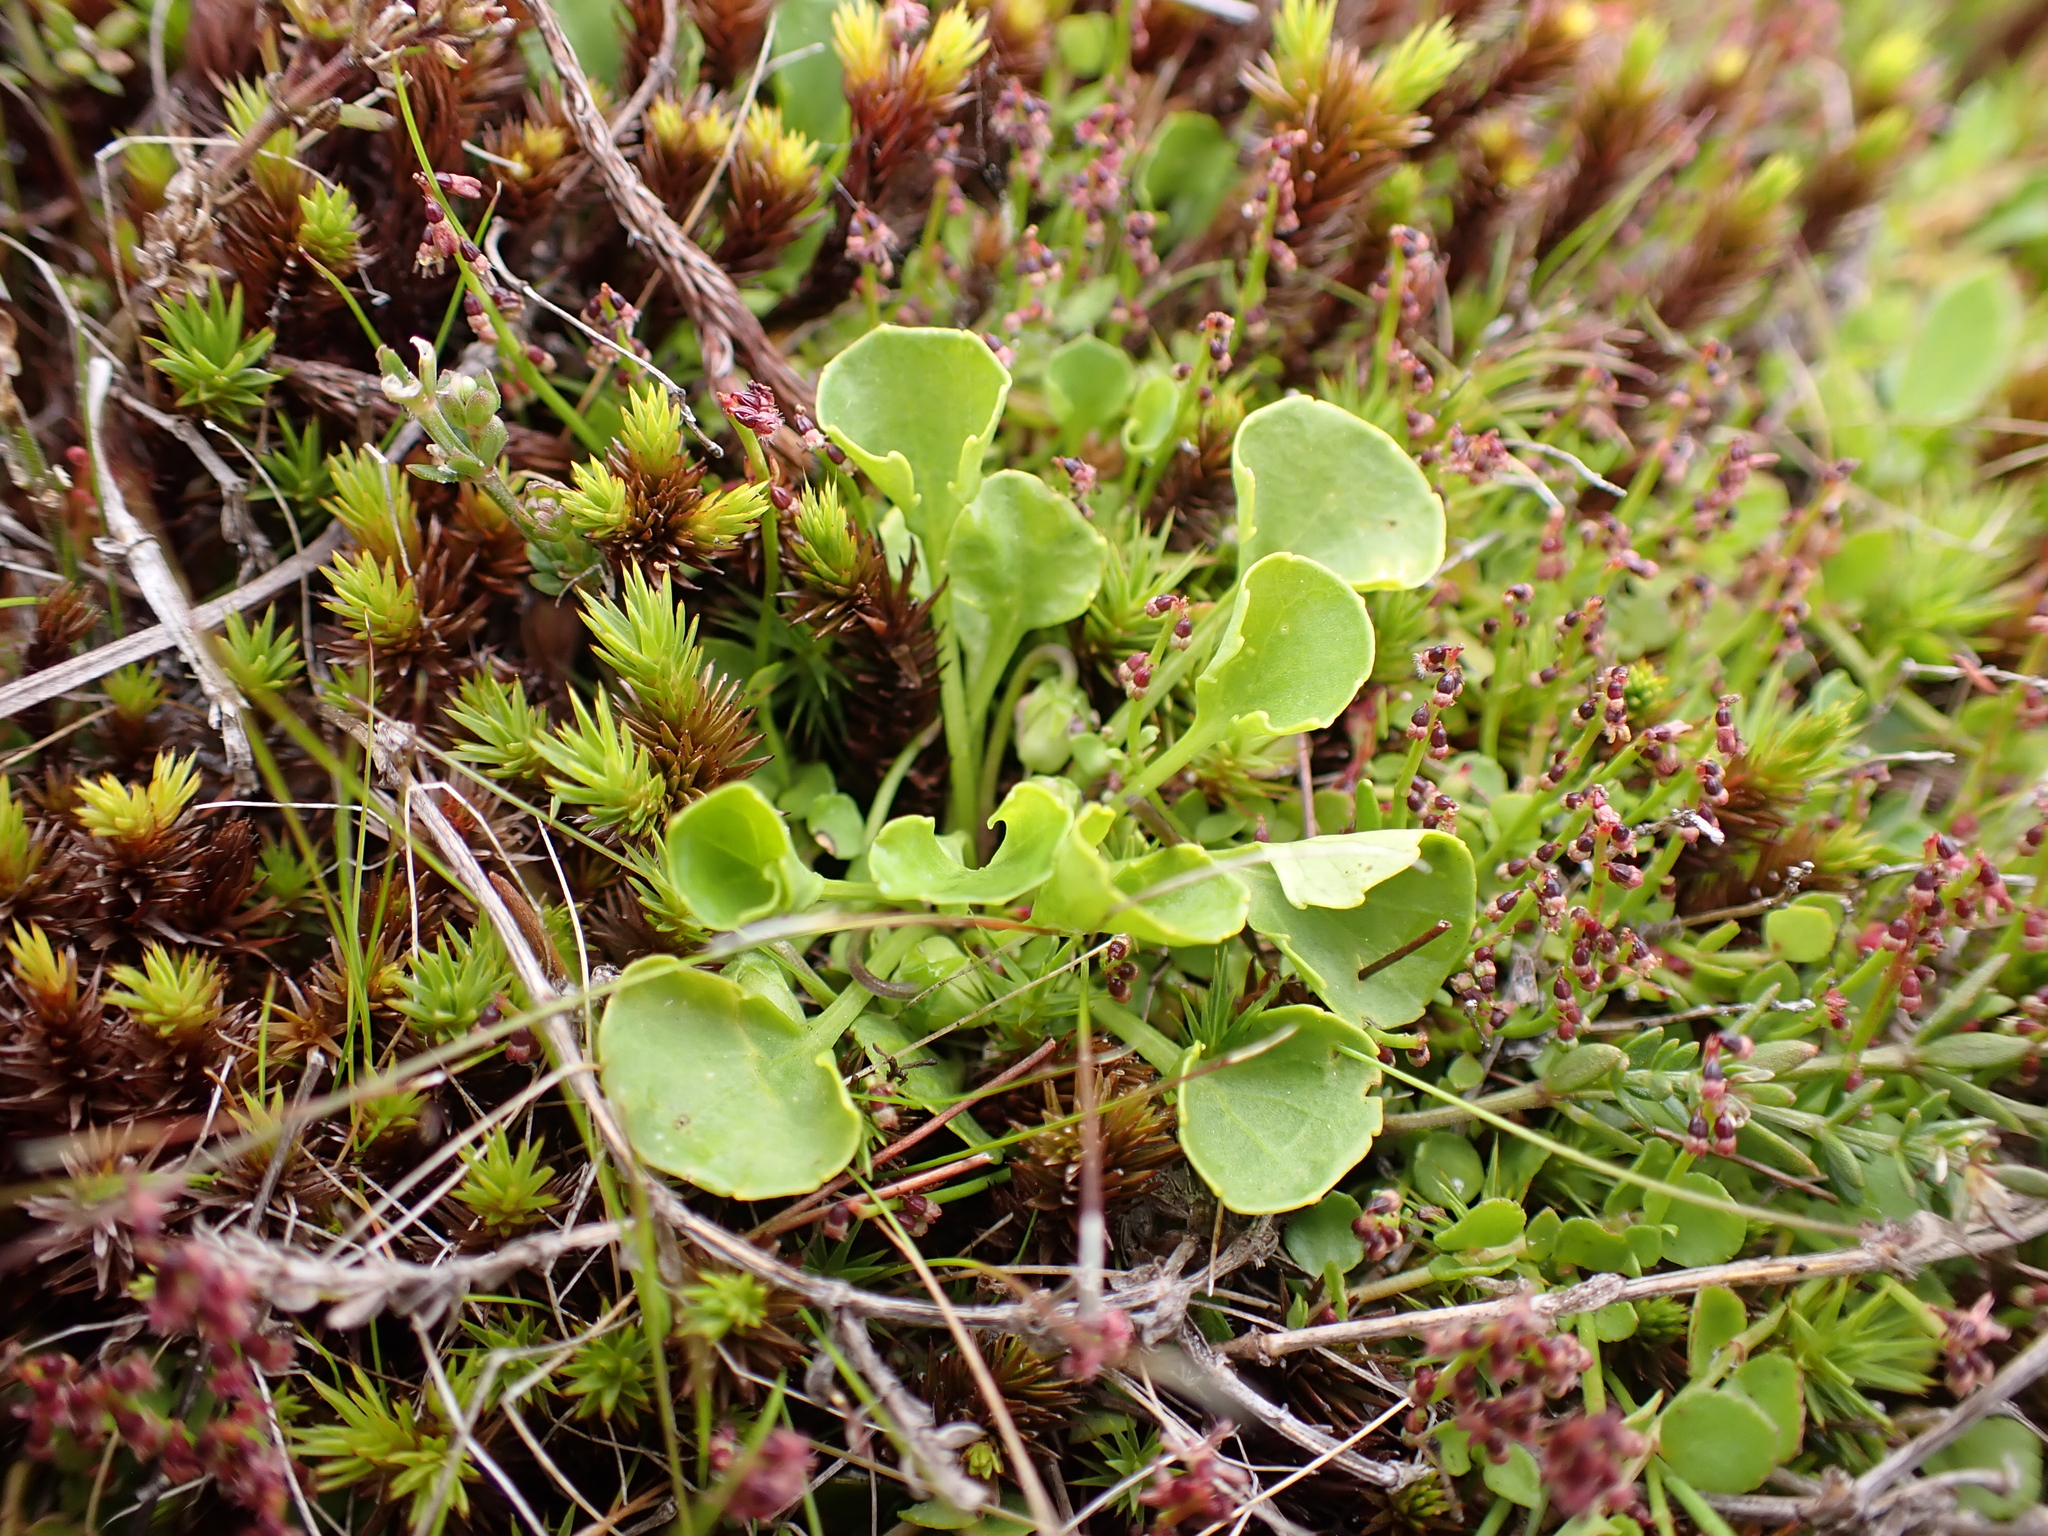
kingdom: Plantae
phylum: Tracheophyta
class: Magnoliopsida
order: Malpighiales
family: Violaceae
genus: Viola
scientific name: Viola fuscoviolacea
